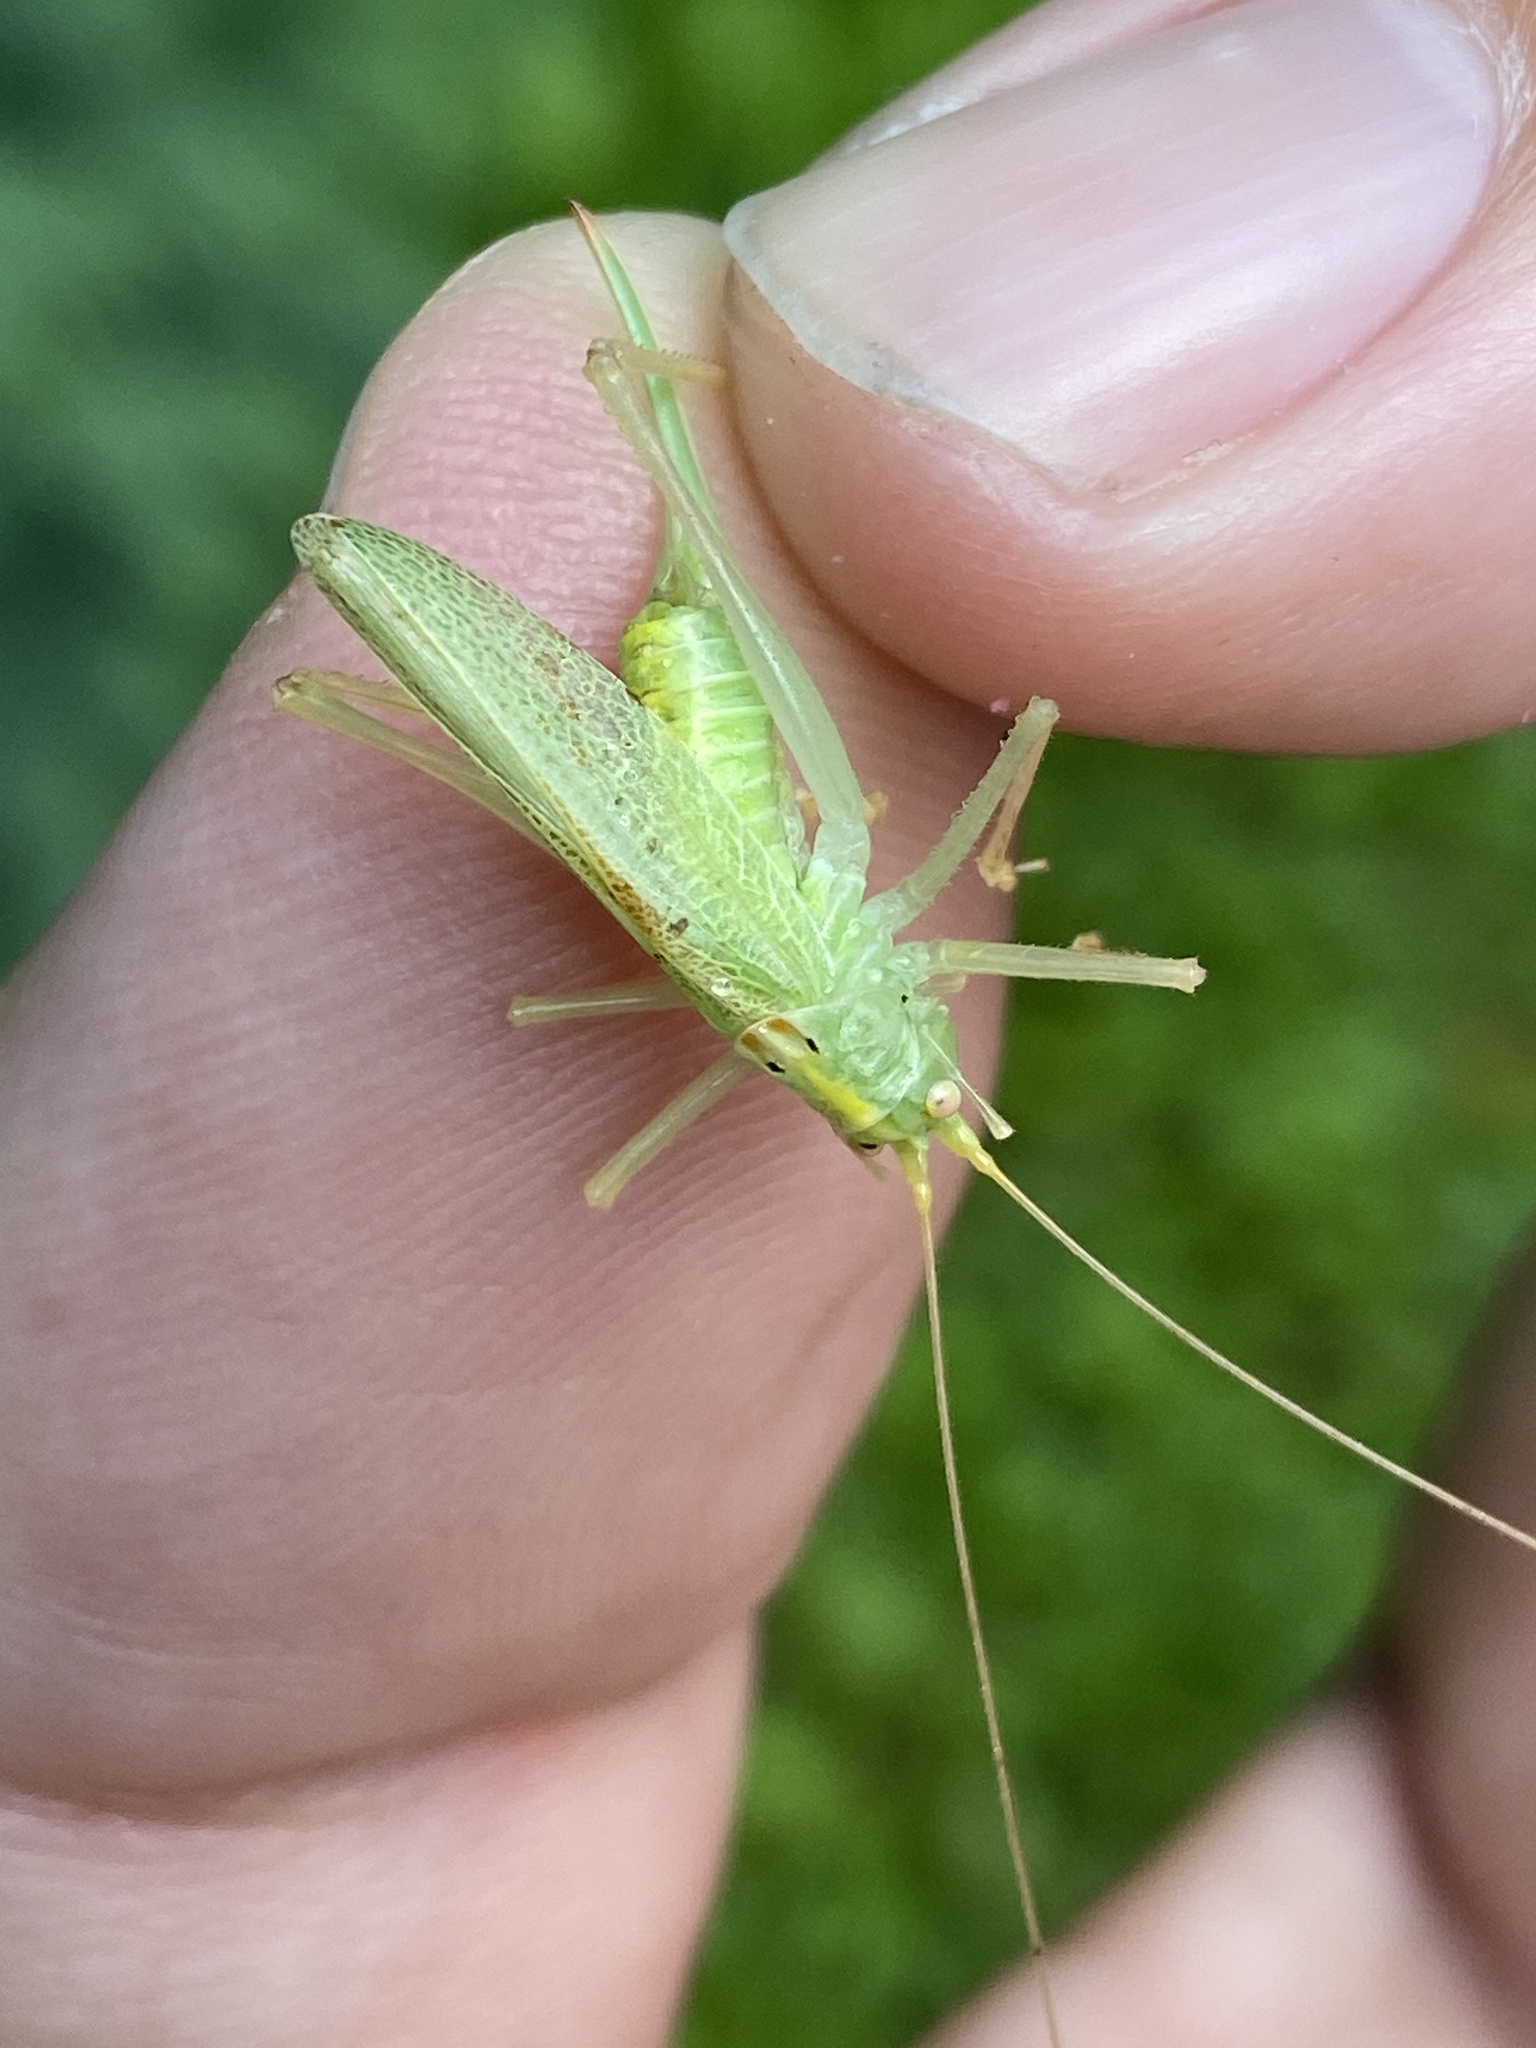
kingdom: Animalia
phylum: Arthropoda
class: Insecta
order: Orthoptera
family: Tettigoniidae
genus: Meconema
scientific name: Meconema thalassinum
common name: Oak bush-cricket
